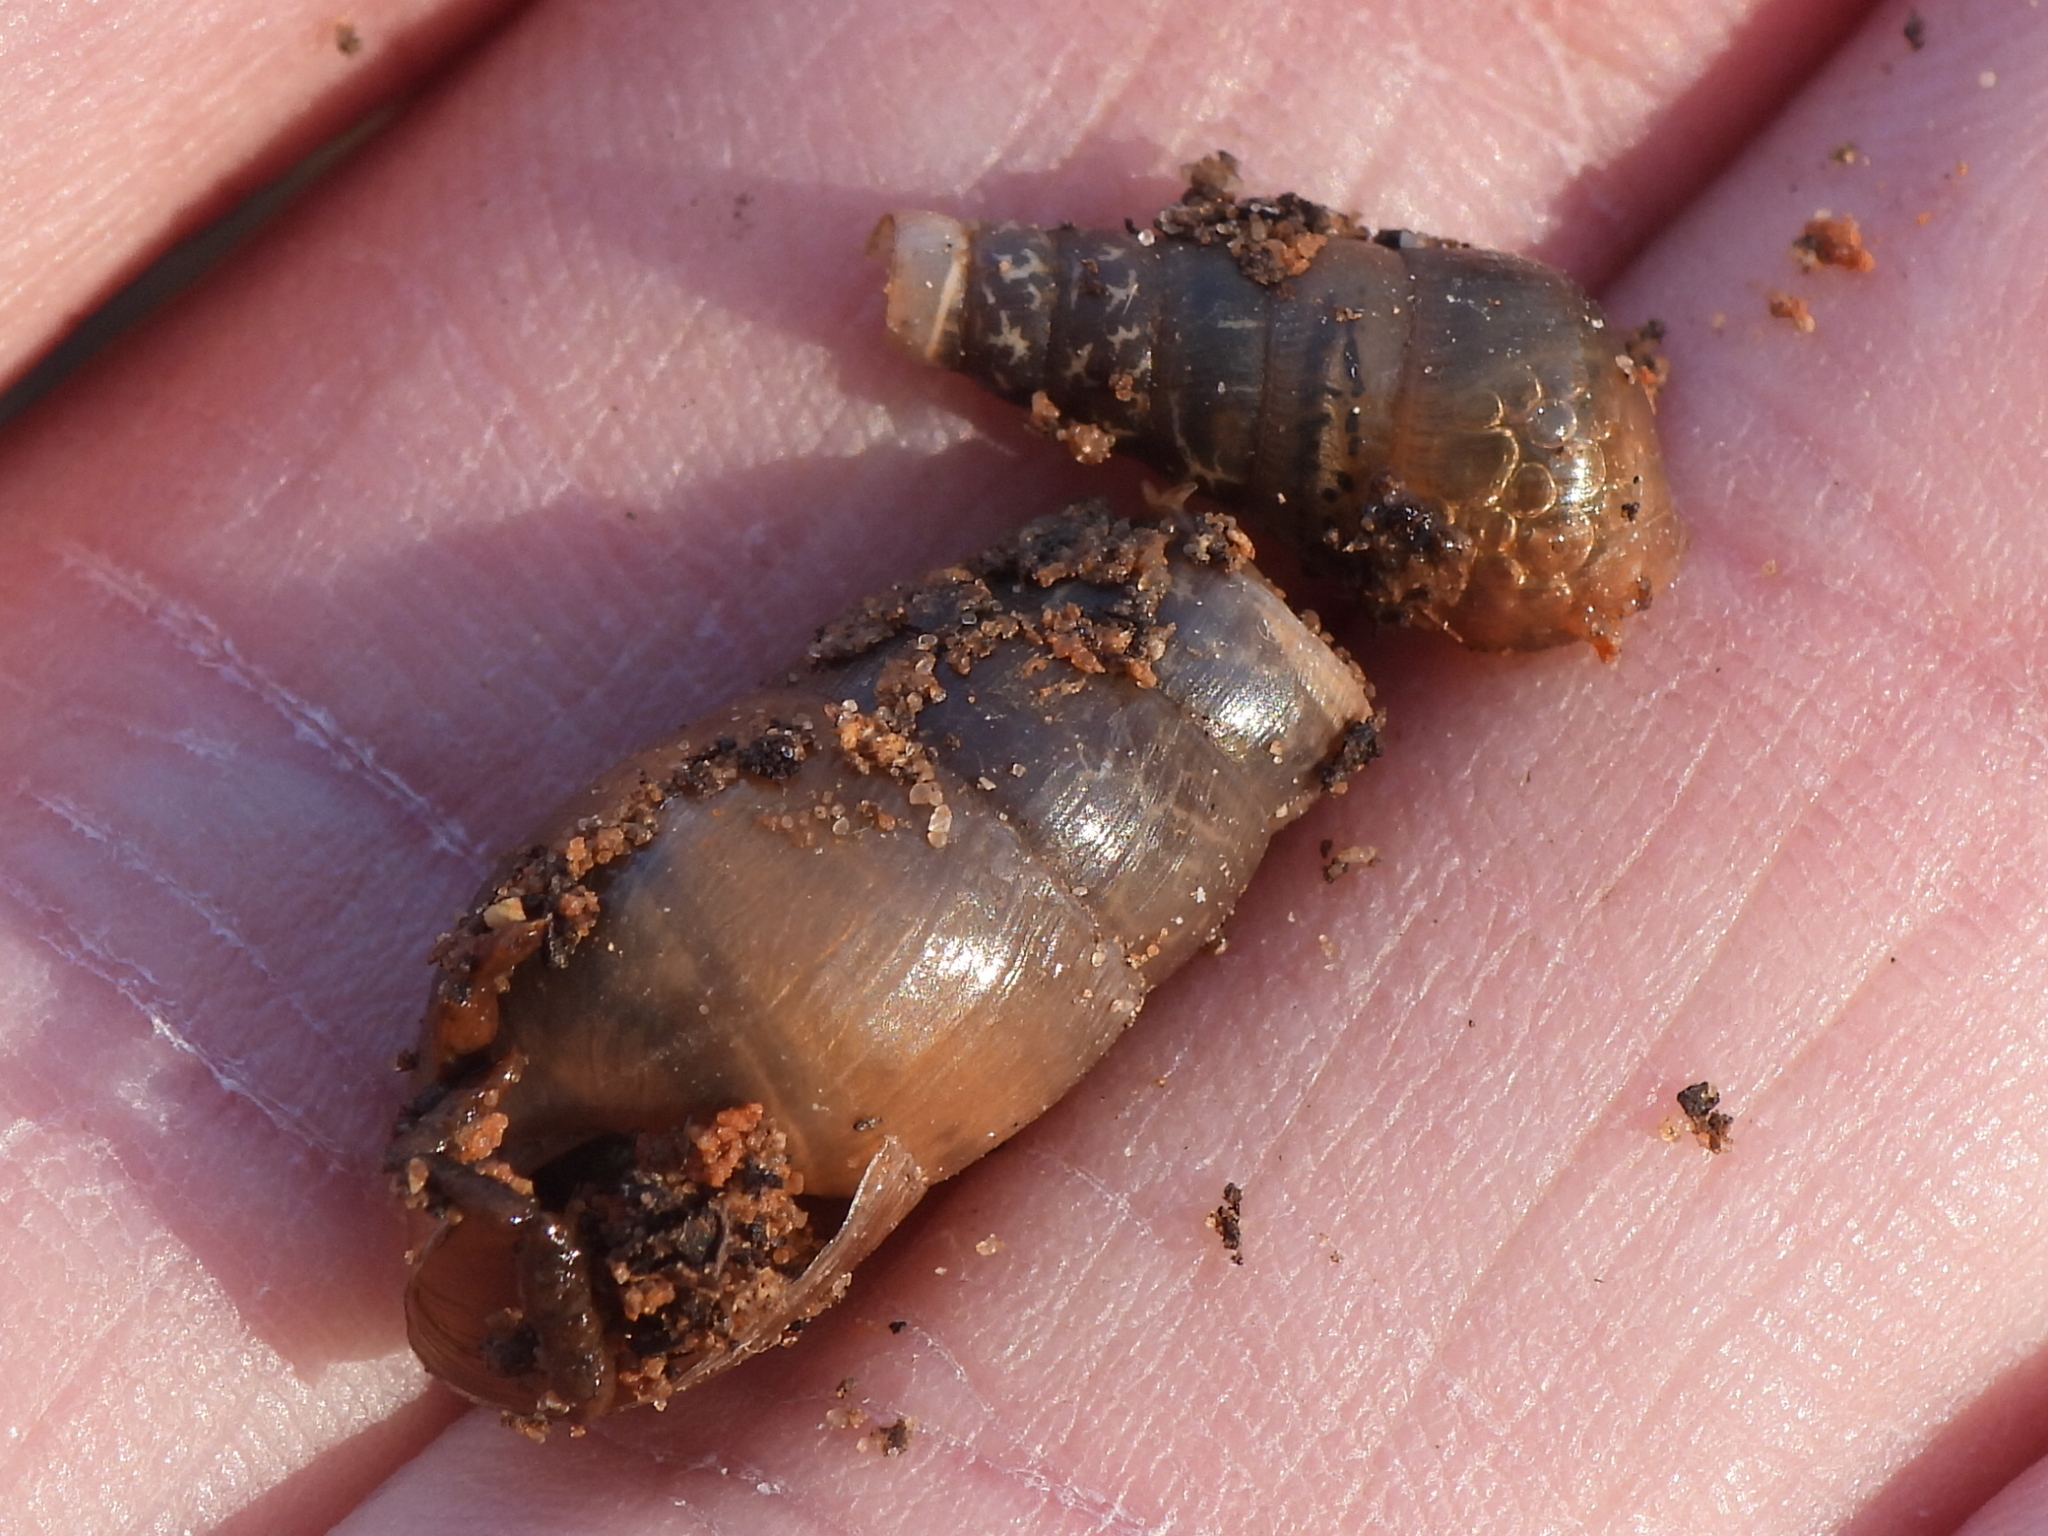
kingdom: Animalia
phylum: Mollusca
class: Gastropoda
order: Stylommatophora
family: Achatinidae
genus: Rumina
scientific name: Rumina decollata
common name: Decollate snail
